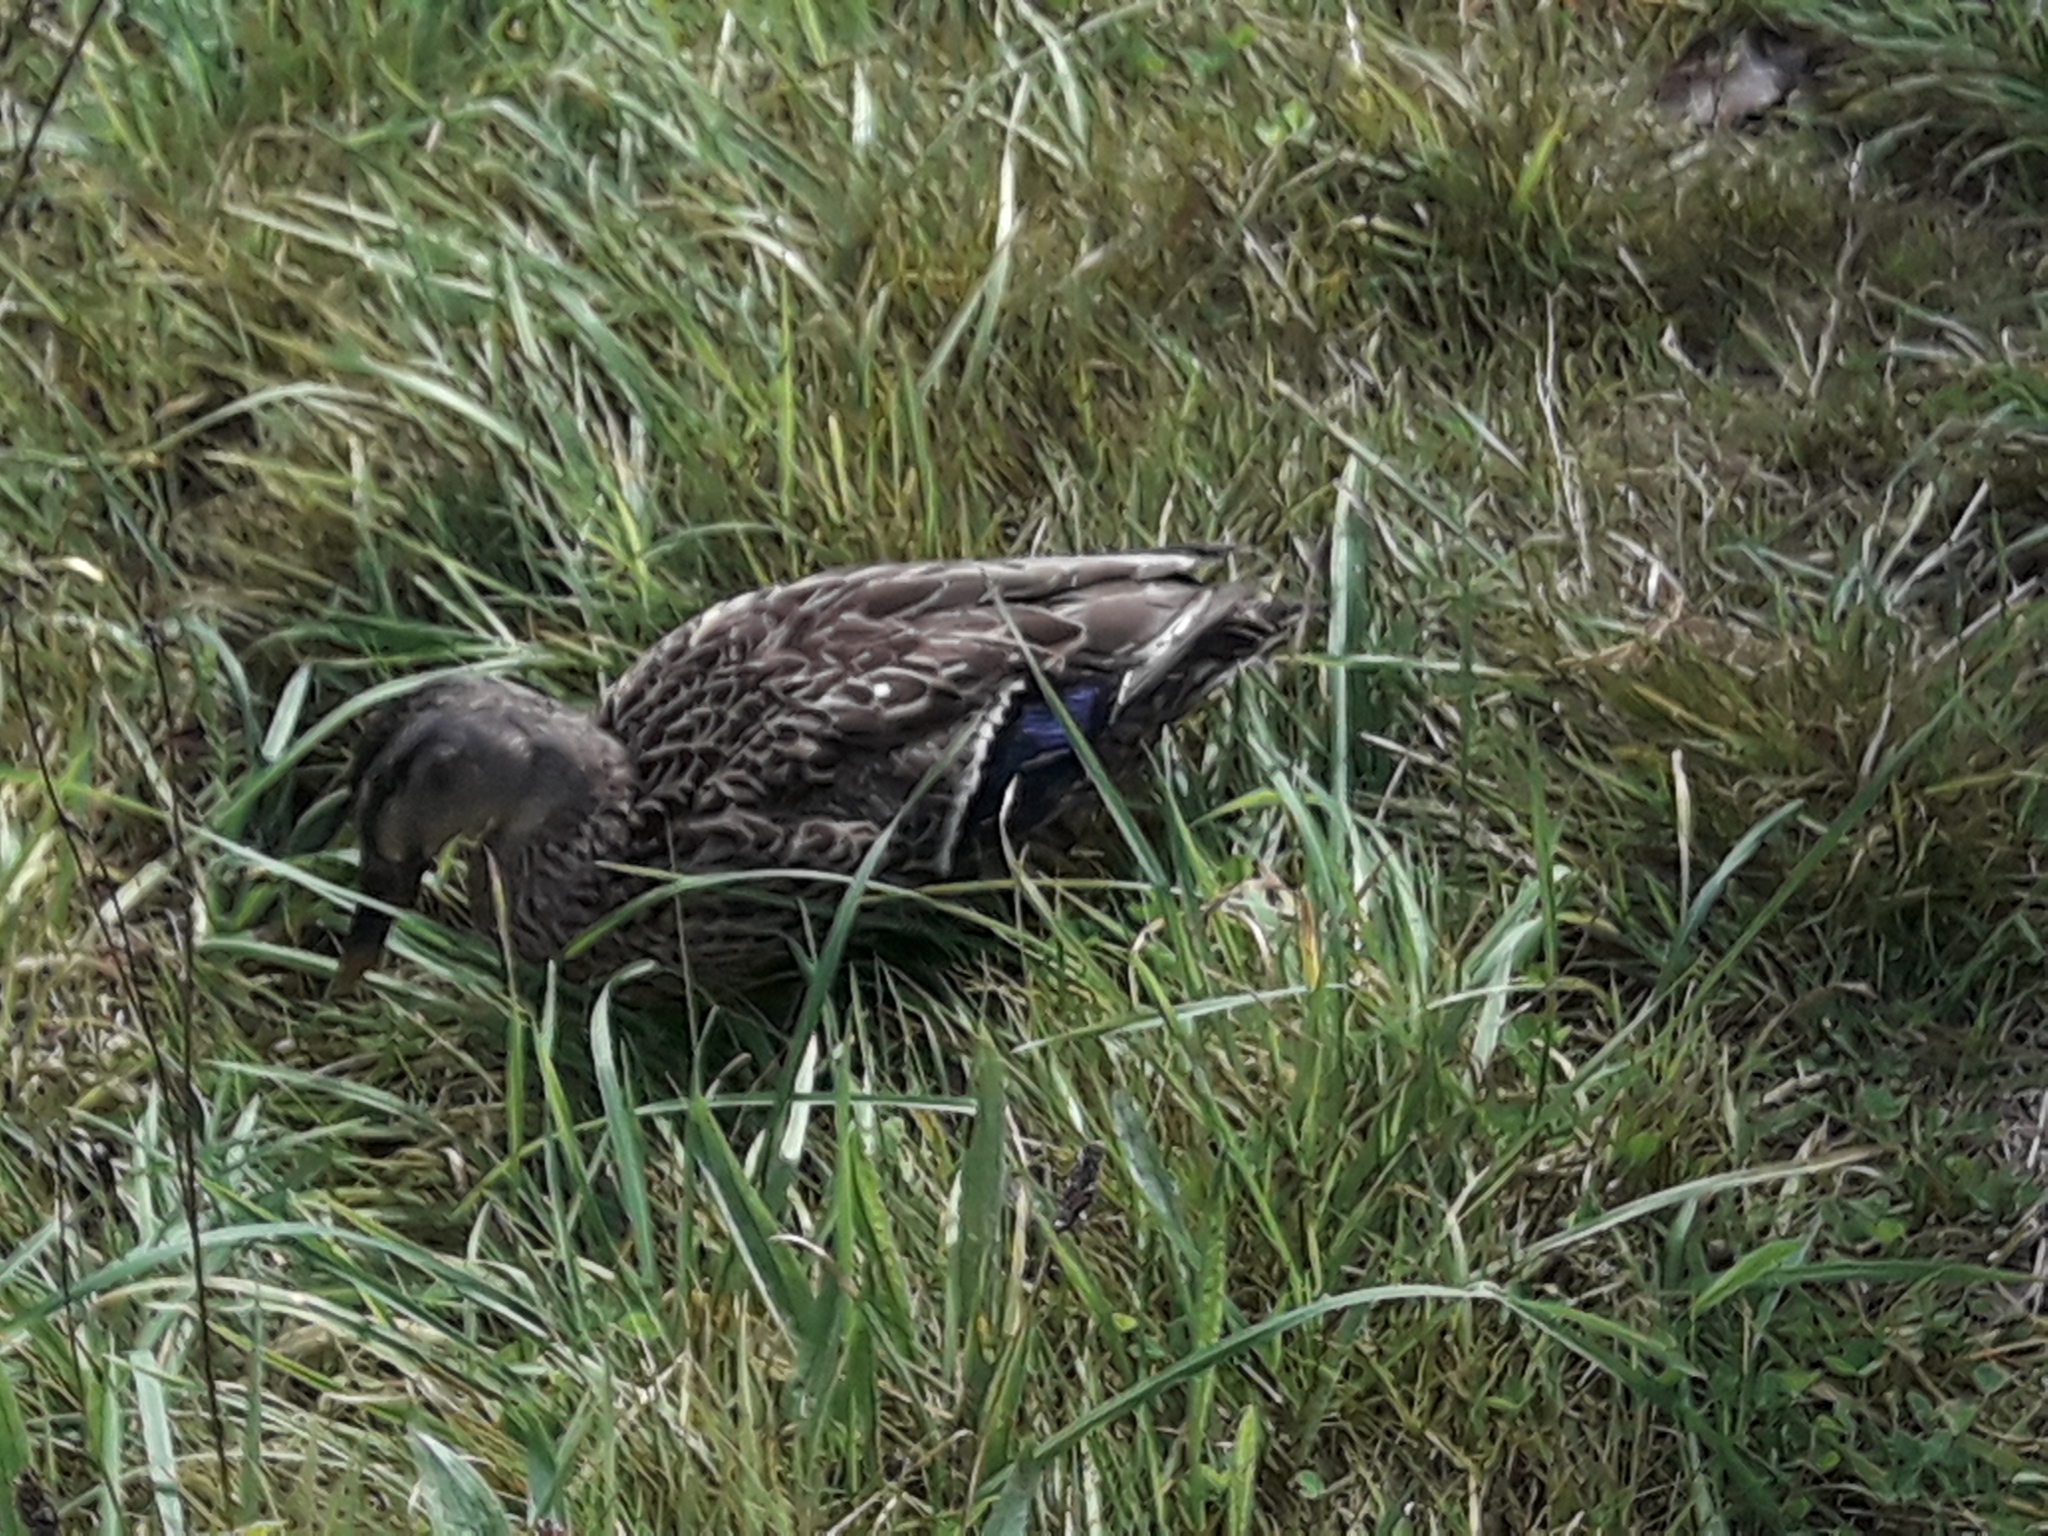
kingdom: Animalia
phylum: Chordata
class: Aves
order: Anseriformes
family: Anatidae
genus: Anas
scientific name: Anas
